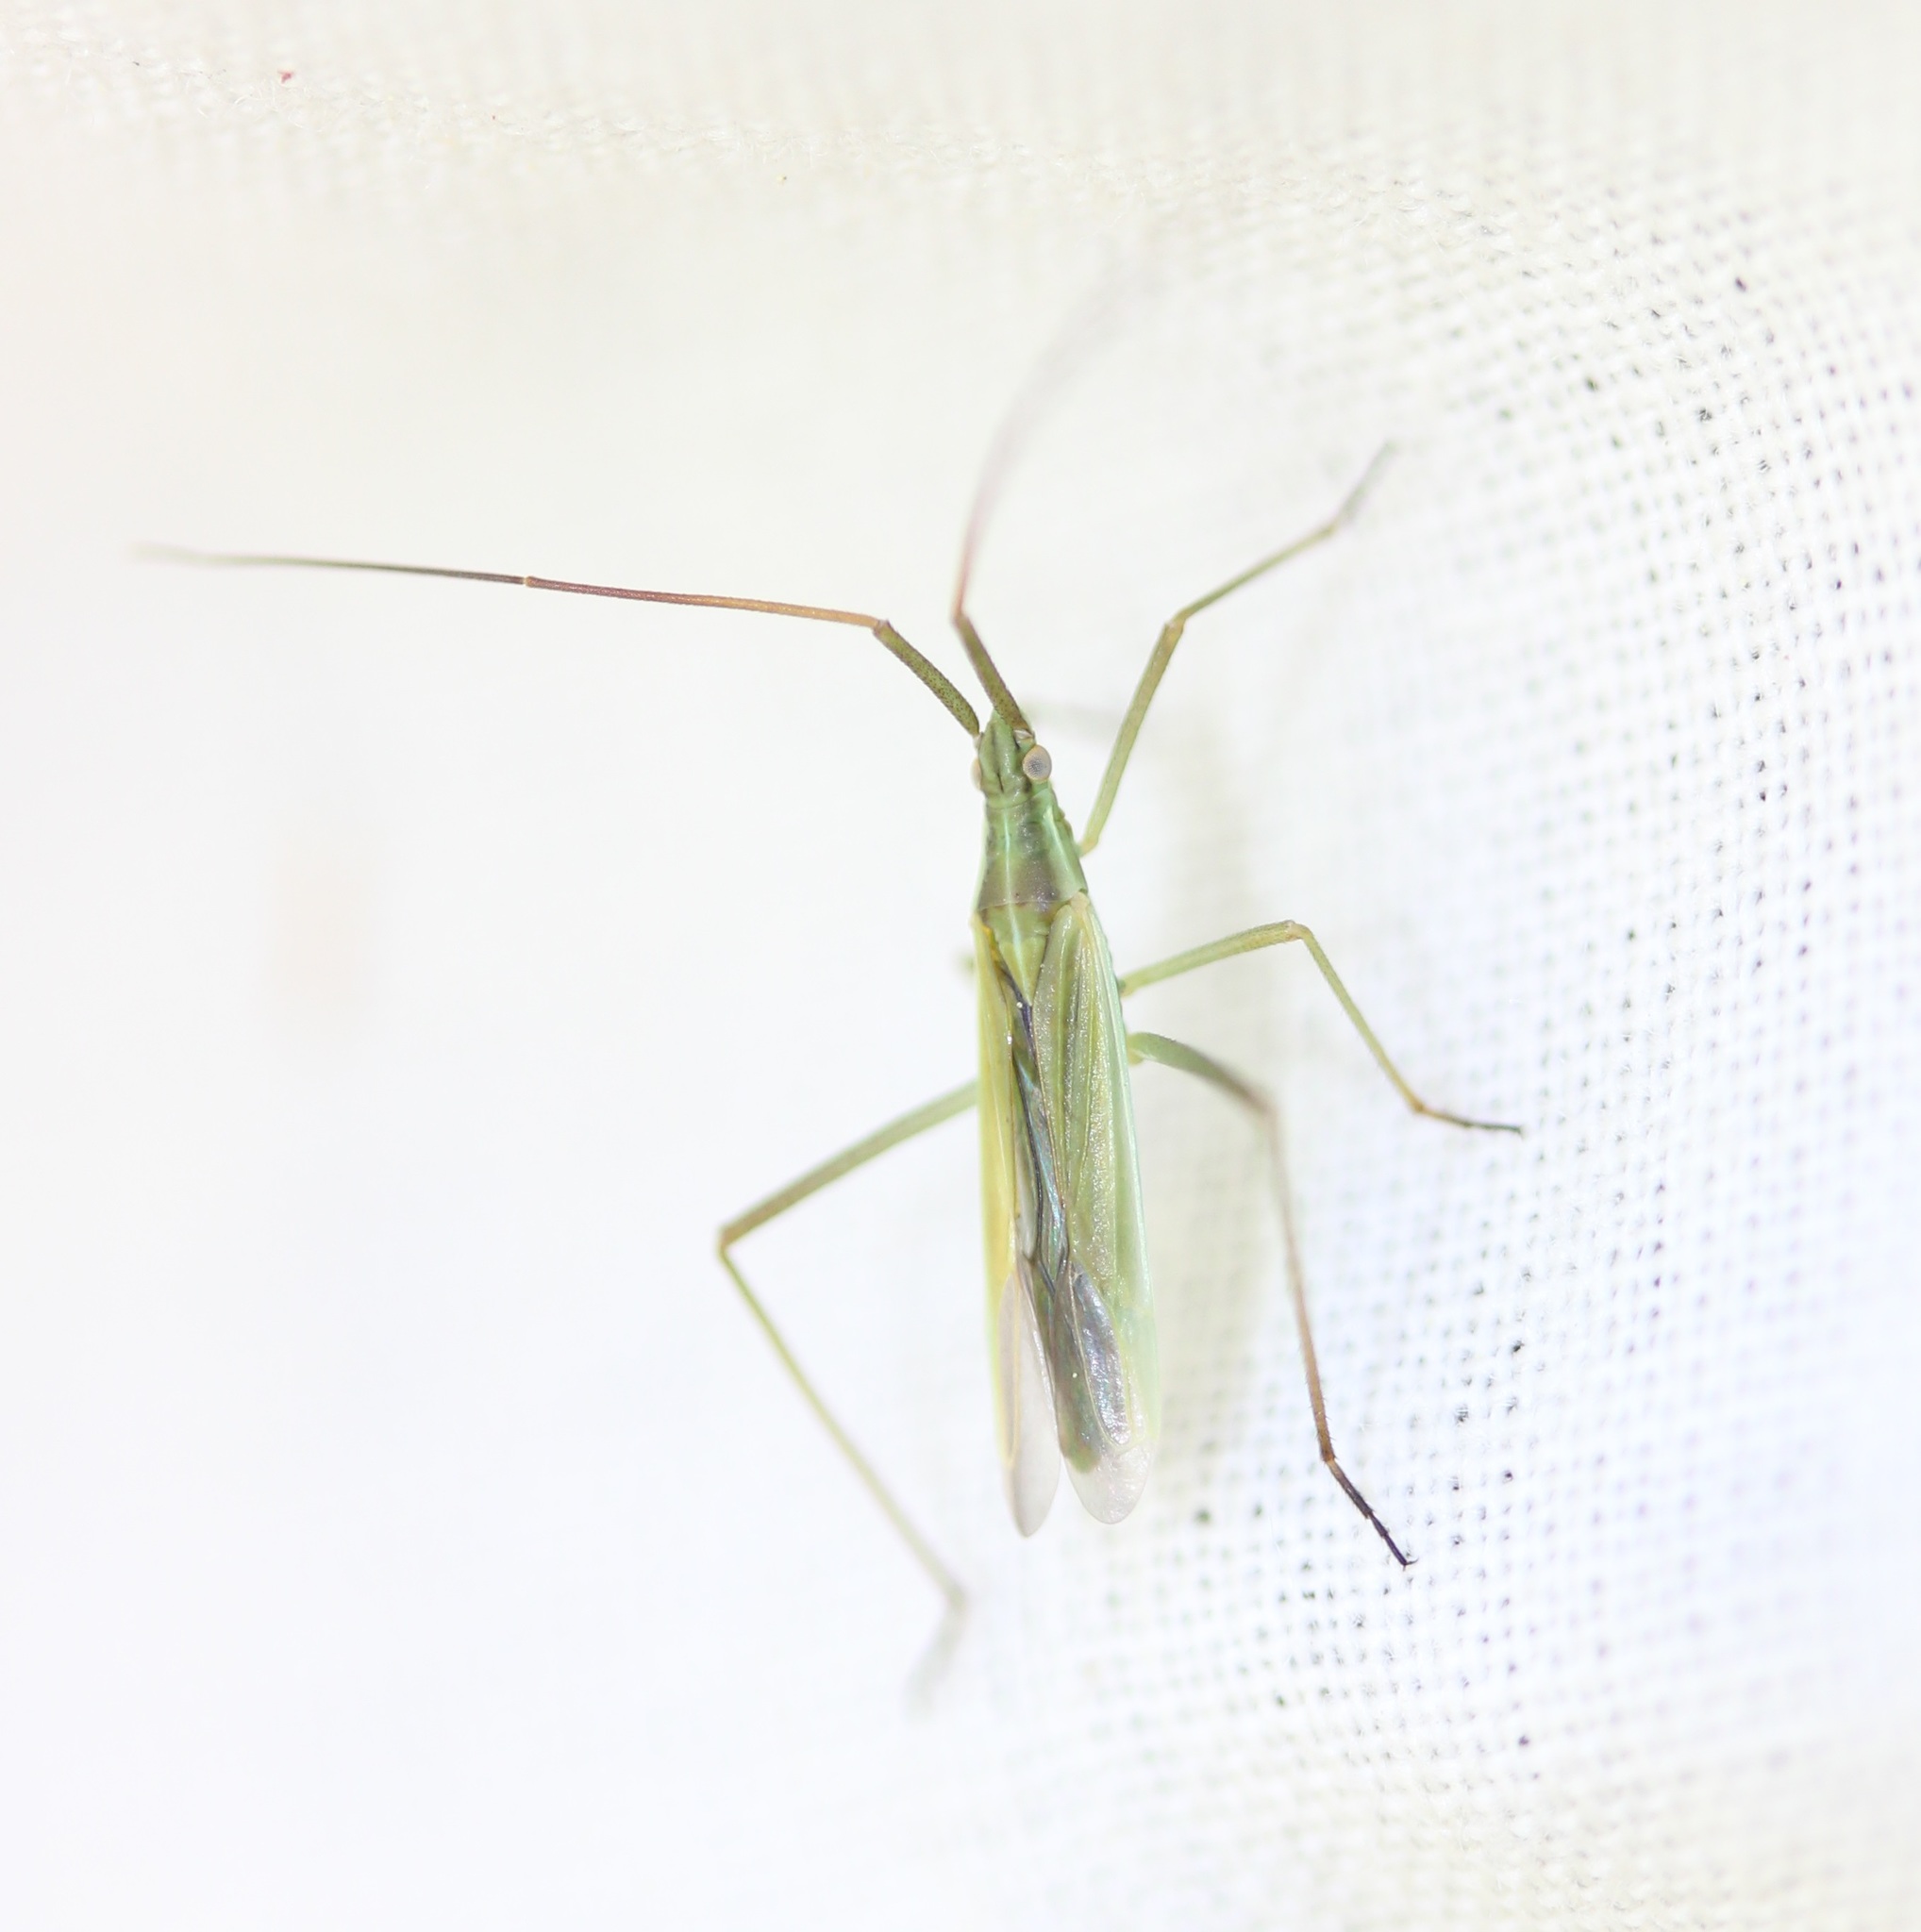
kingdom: Animalia
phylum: Arthropoda
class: Insecta
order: Hemiptera
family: Miridae
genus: Megaloceroea
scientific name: Megaloceroea recticornis
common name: Plant bug
